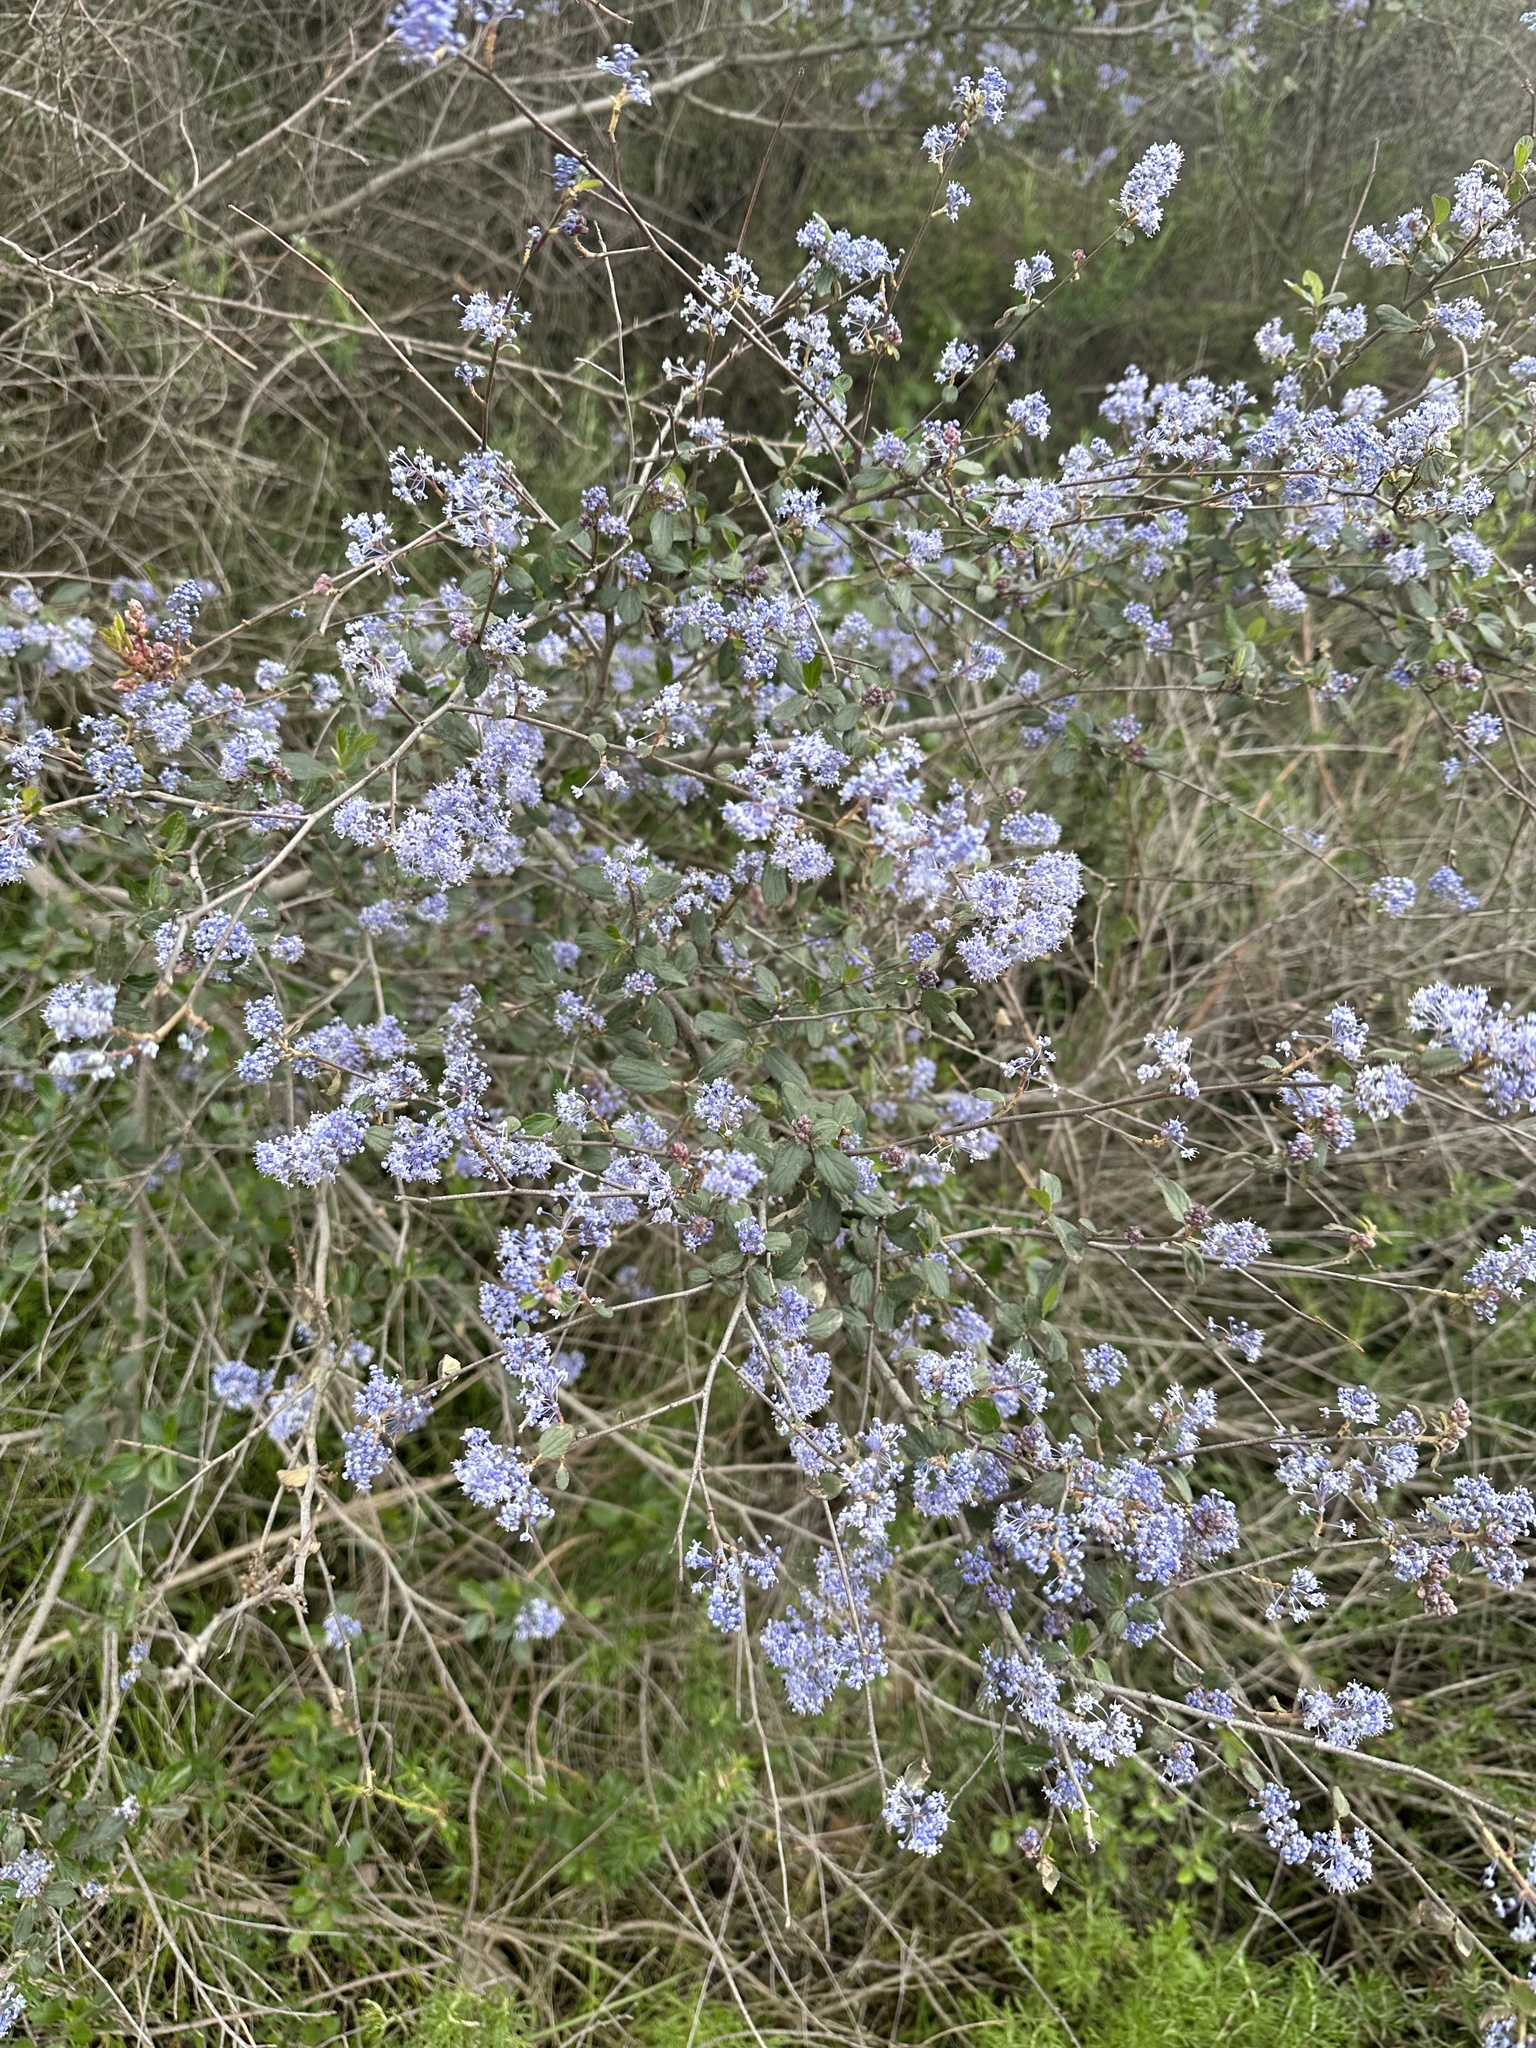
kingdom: Plantae
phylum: Tracheophyta
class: Magnoliopsida
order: Rosales
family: Rhamnaceae
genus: Ceanothus
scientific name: Ceanothus tomentosus
